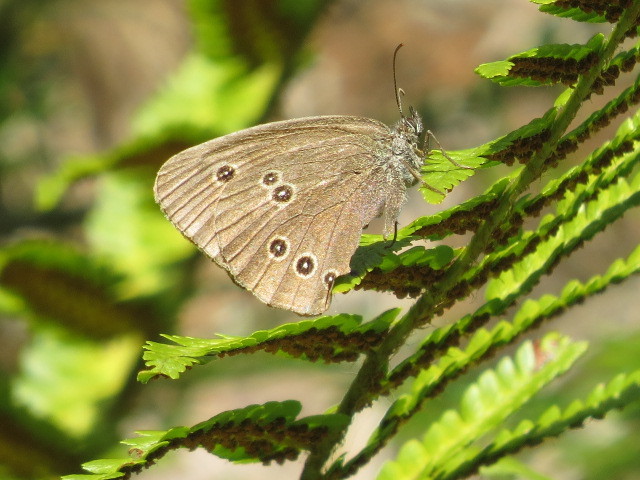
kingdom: Animalia
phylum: Arthropoda
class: Insecta
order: Lepidoptera
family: Nymphalidae
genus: Aphantopus
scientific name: Aphantopus hyperantus
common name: Ringlet
